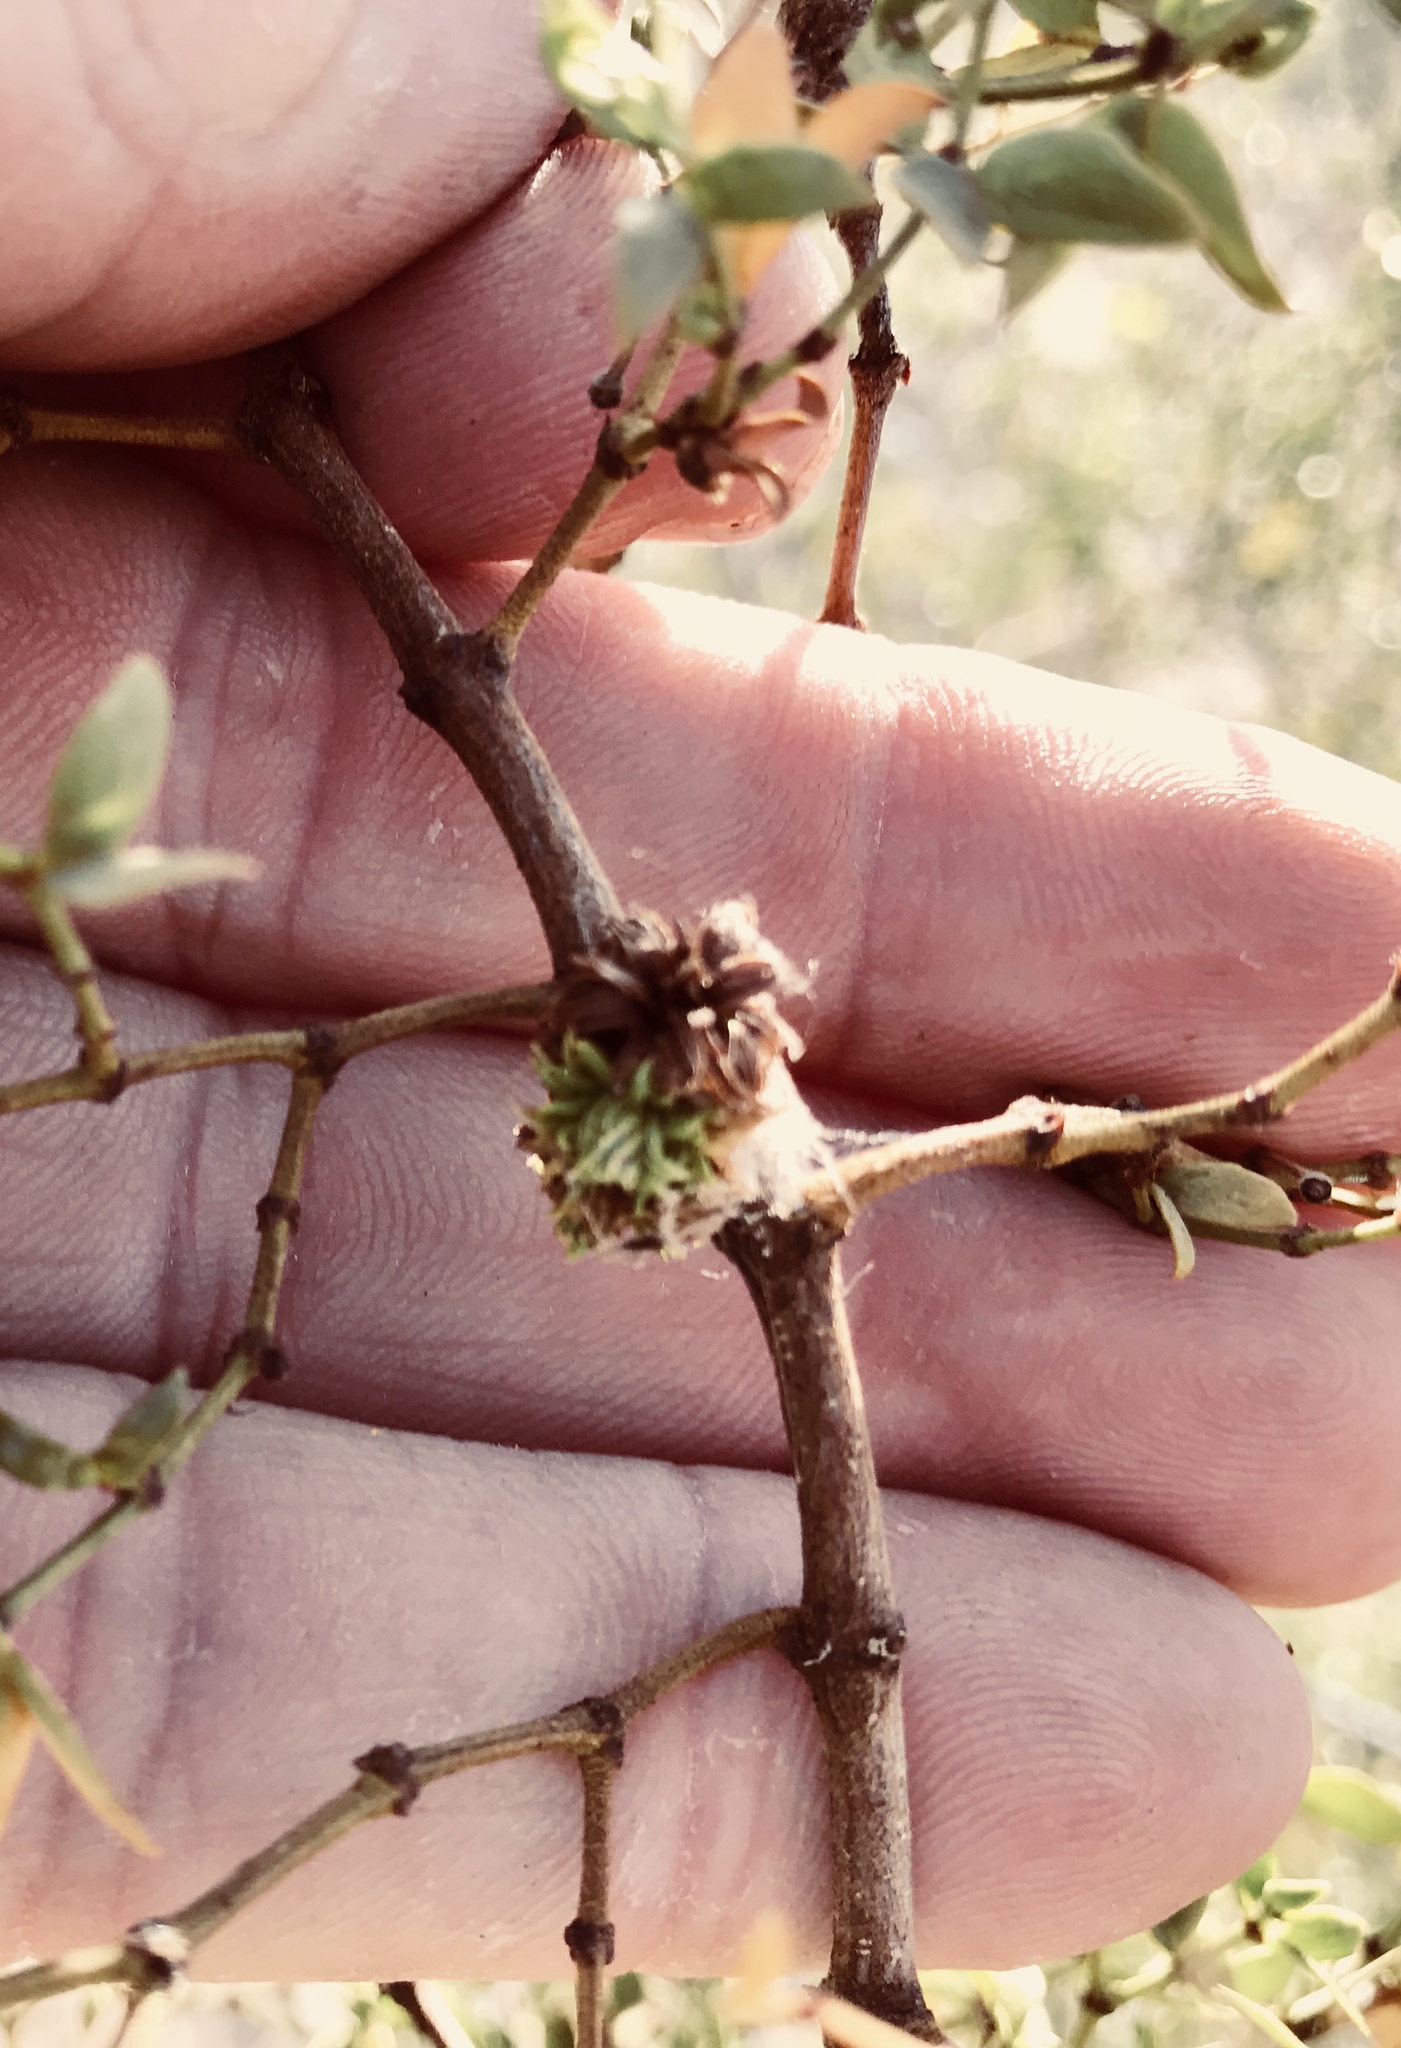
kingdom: Animalia
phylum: Arthropoda
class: Insecta
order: Diptera
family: Cecidomyiidae
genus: Asphondylia
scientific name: Asphondylia rosetta
